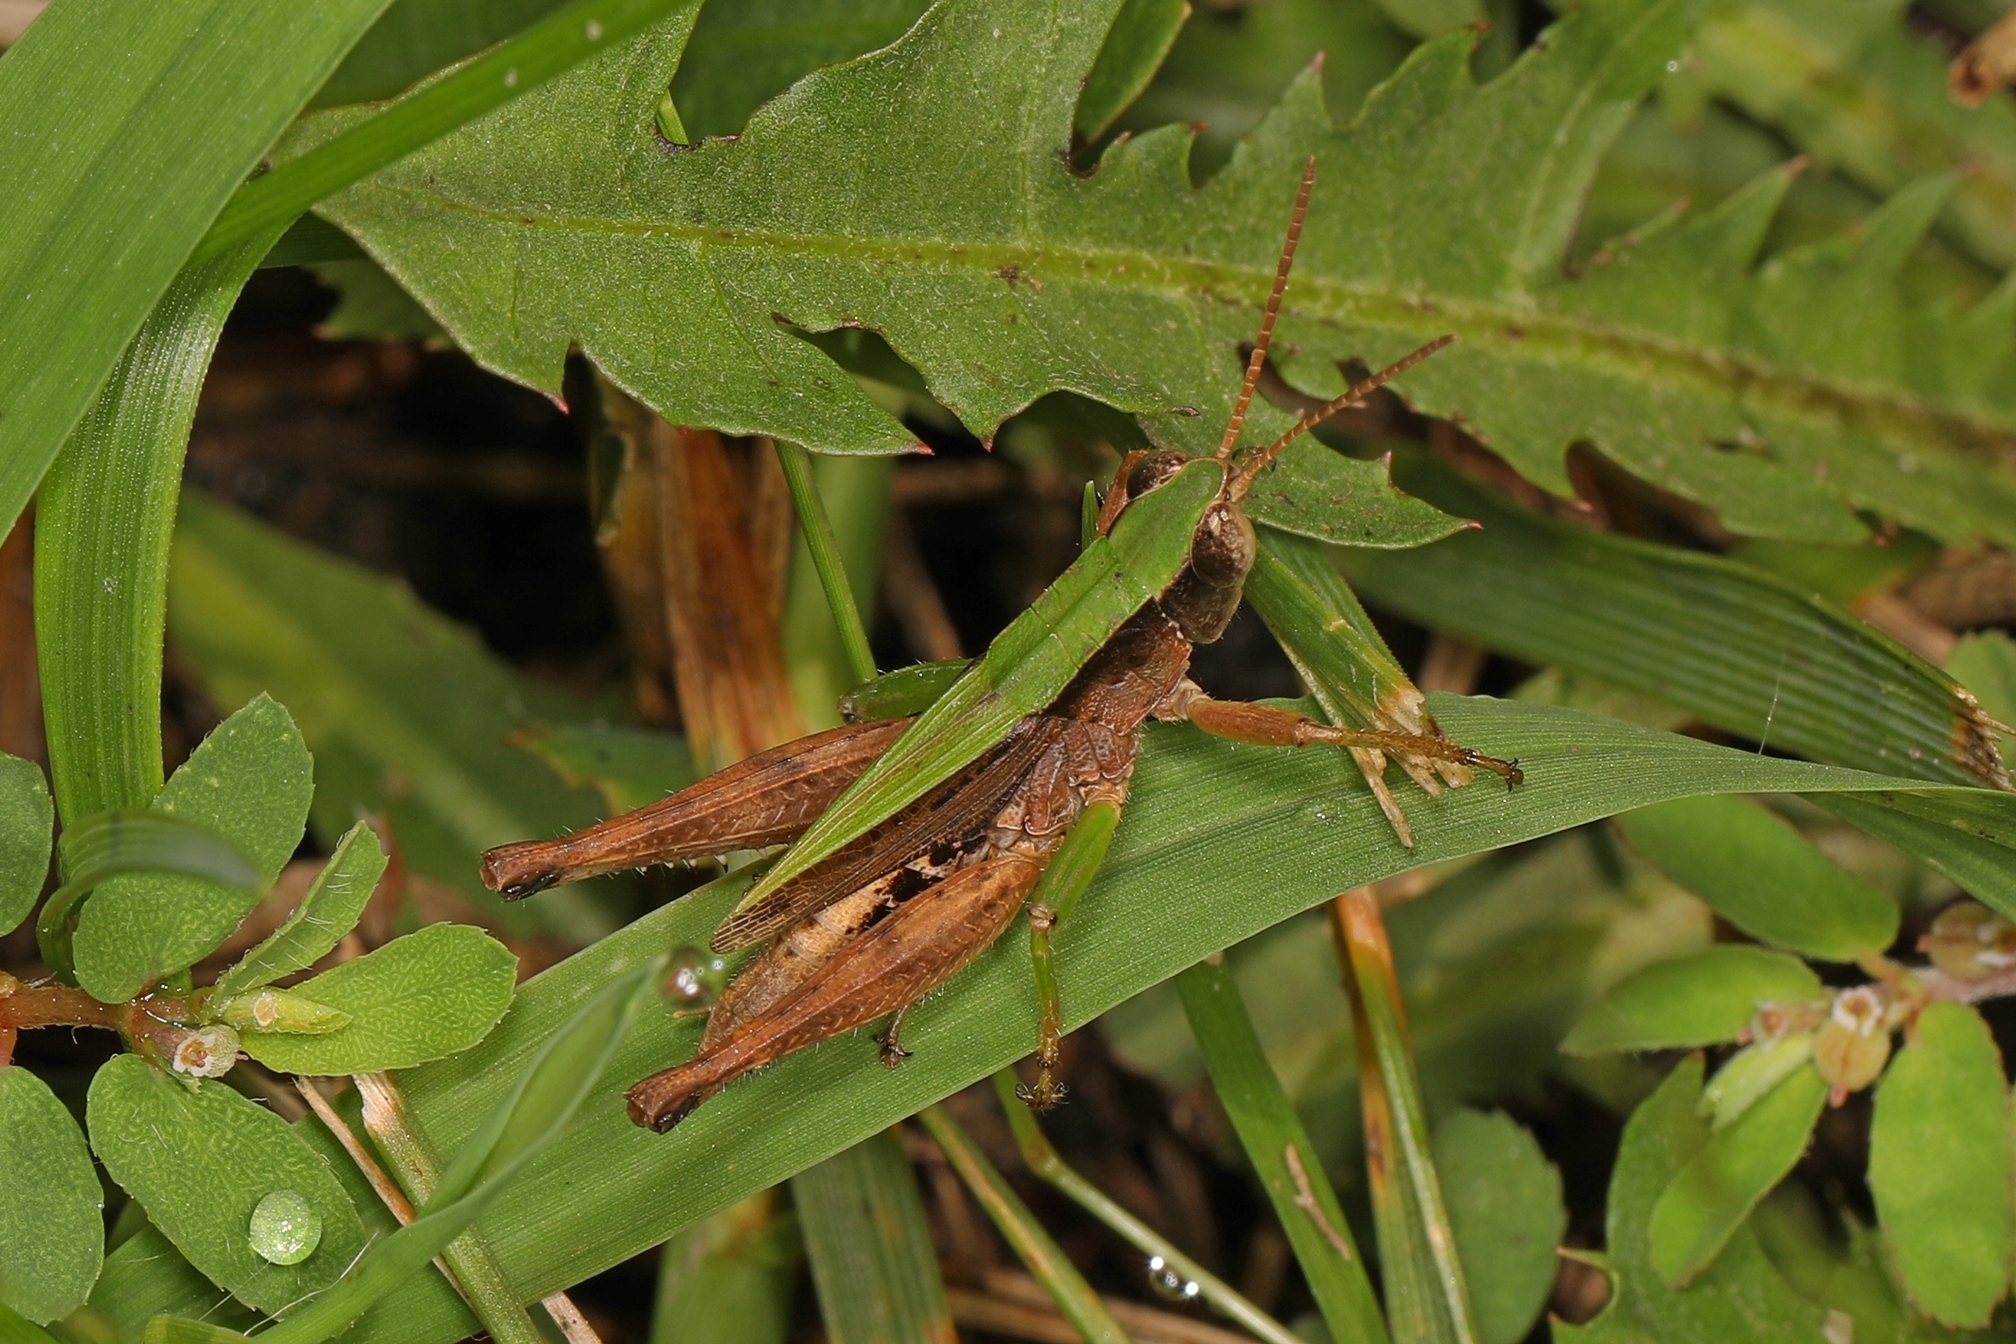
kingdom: Animalia
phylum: Arthropoda
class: Insecta
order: Orthoptera
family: Acrididae
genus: Dichromorpha
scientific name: Dichromorpha viridis
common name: Short-winged green grasshopper
